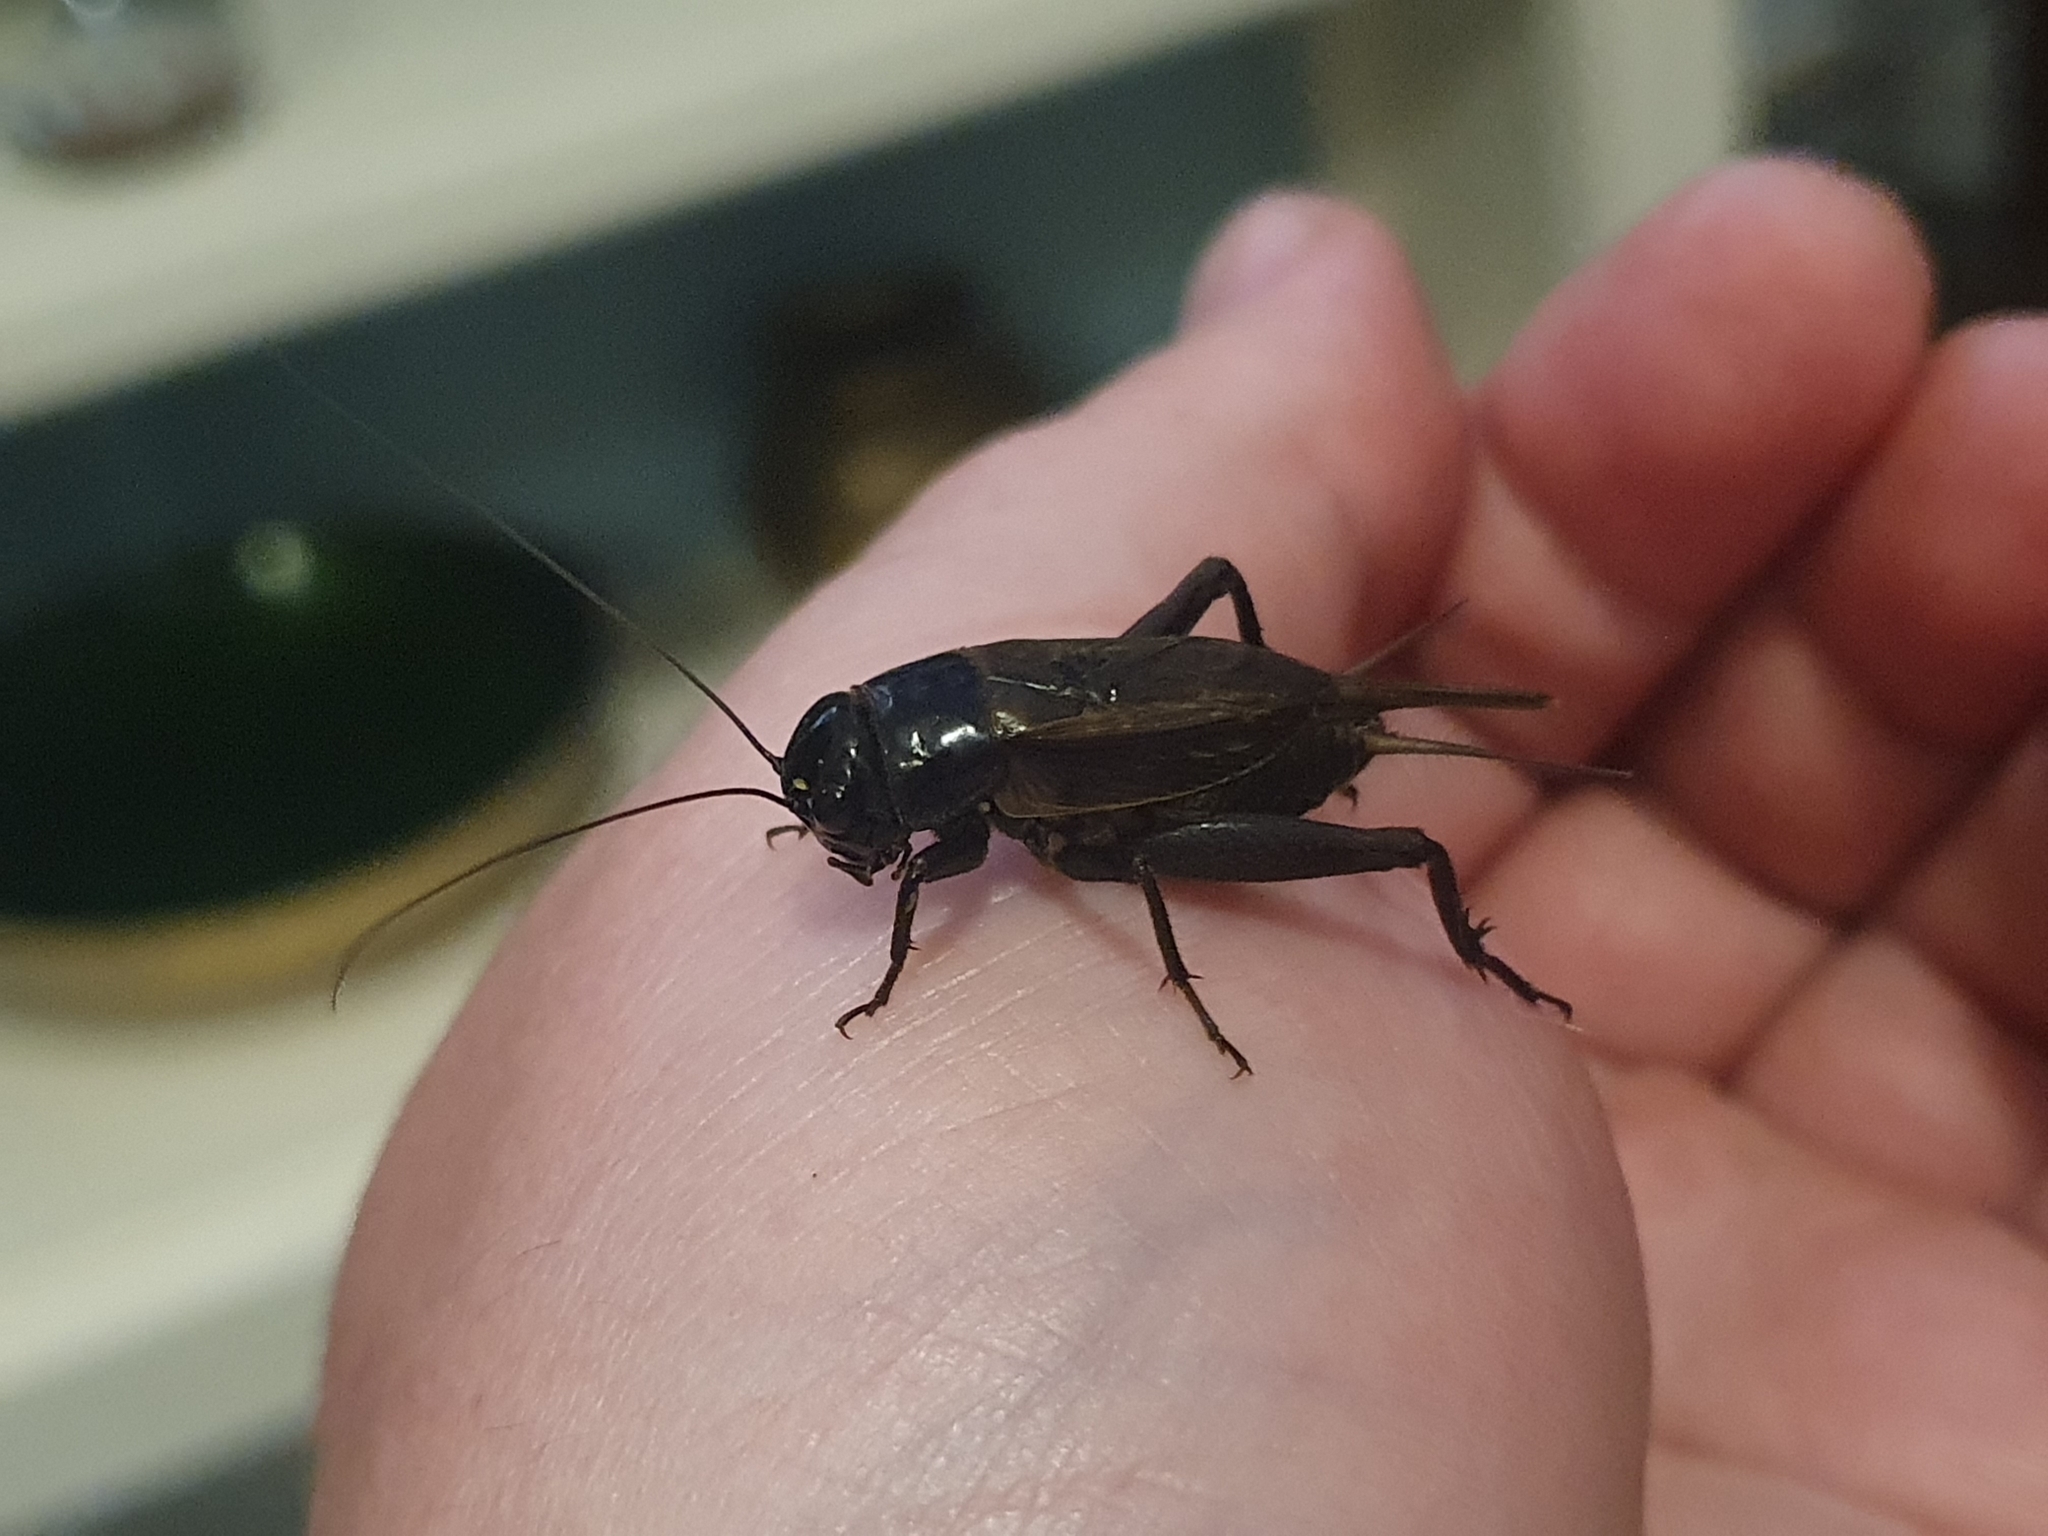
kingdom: Animalia
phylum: Arthropoda
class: Insecta
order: Orthoptera
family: Gryllidae
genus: Teleogryllus
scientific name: Teleogryllus commodus
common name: Black field cricket
